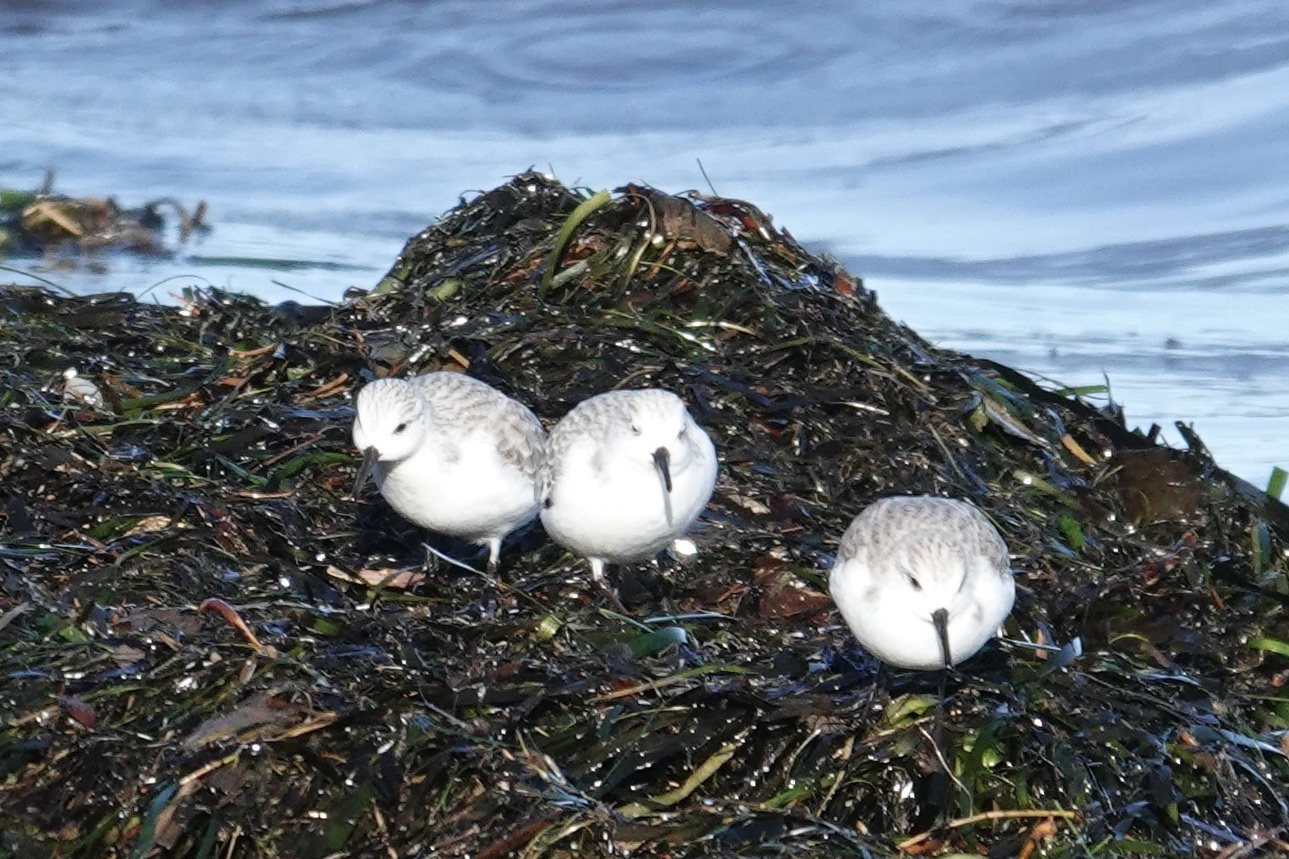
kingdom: Animalia
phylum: Chordata
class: Aves
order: Charadriiformes
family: Scolopacidae
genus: Calidris
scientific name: Calidris alba
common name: Sanderling
